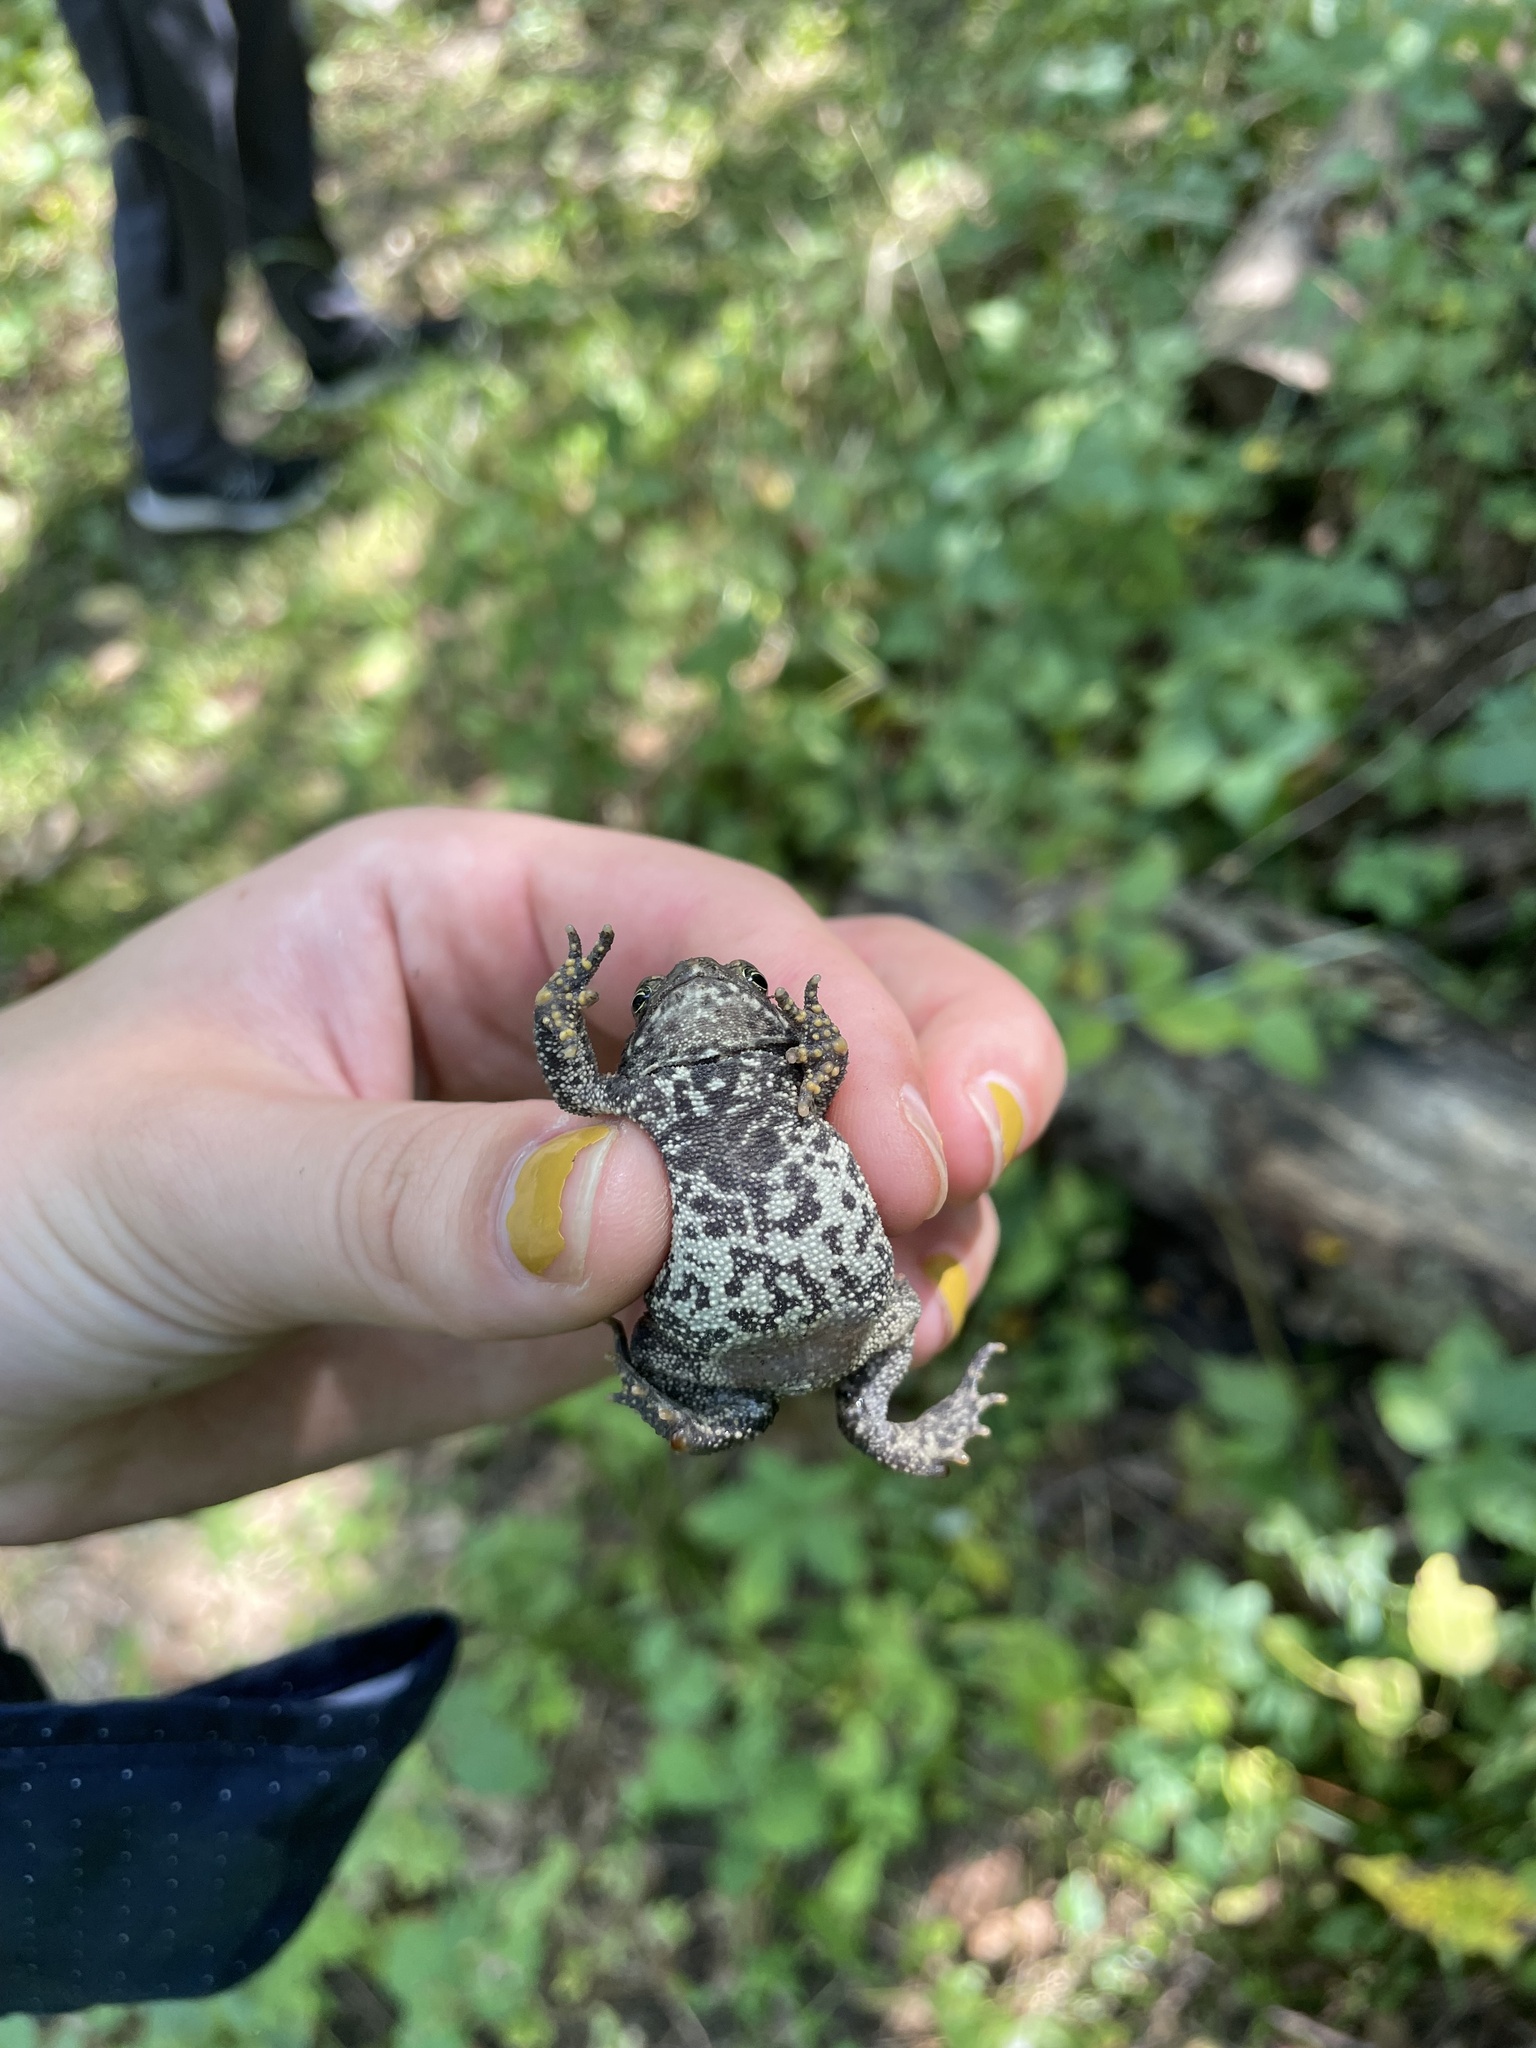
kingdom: Animalia
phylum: Chordata
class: Amphibia
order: Anura
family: Bufonidae
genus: Anaxyrus
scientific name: Anaxyrus americanus
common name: American toad
